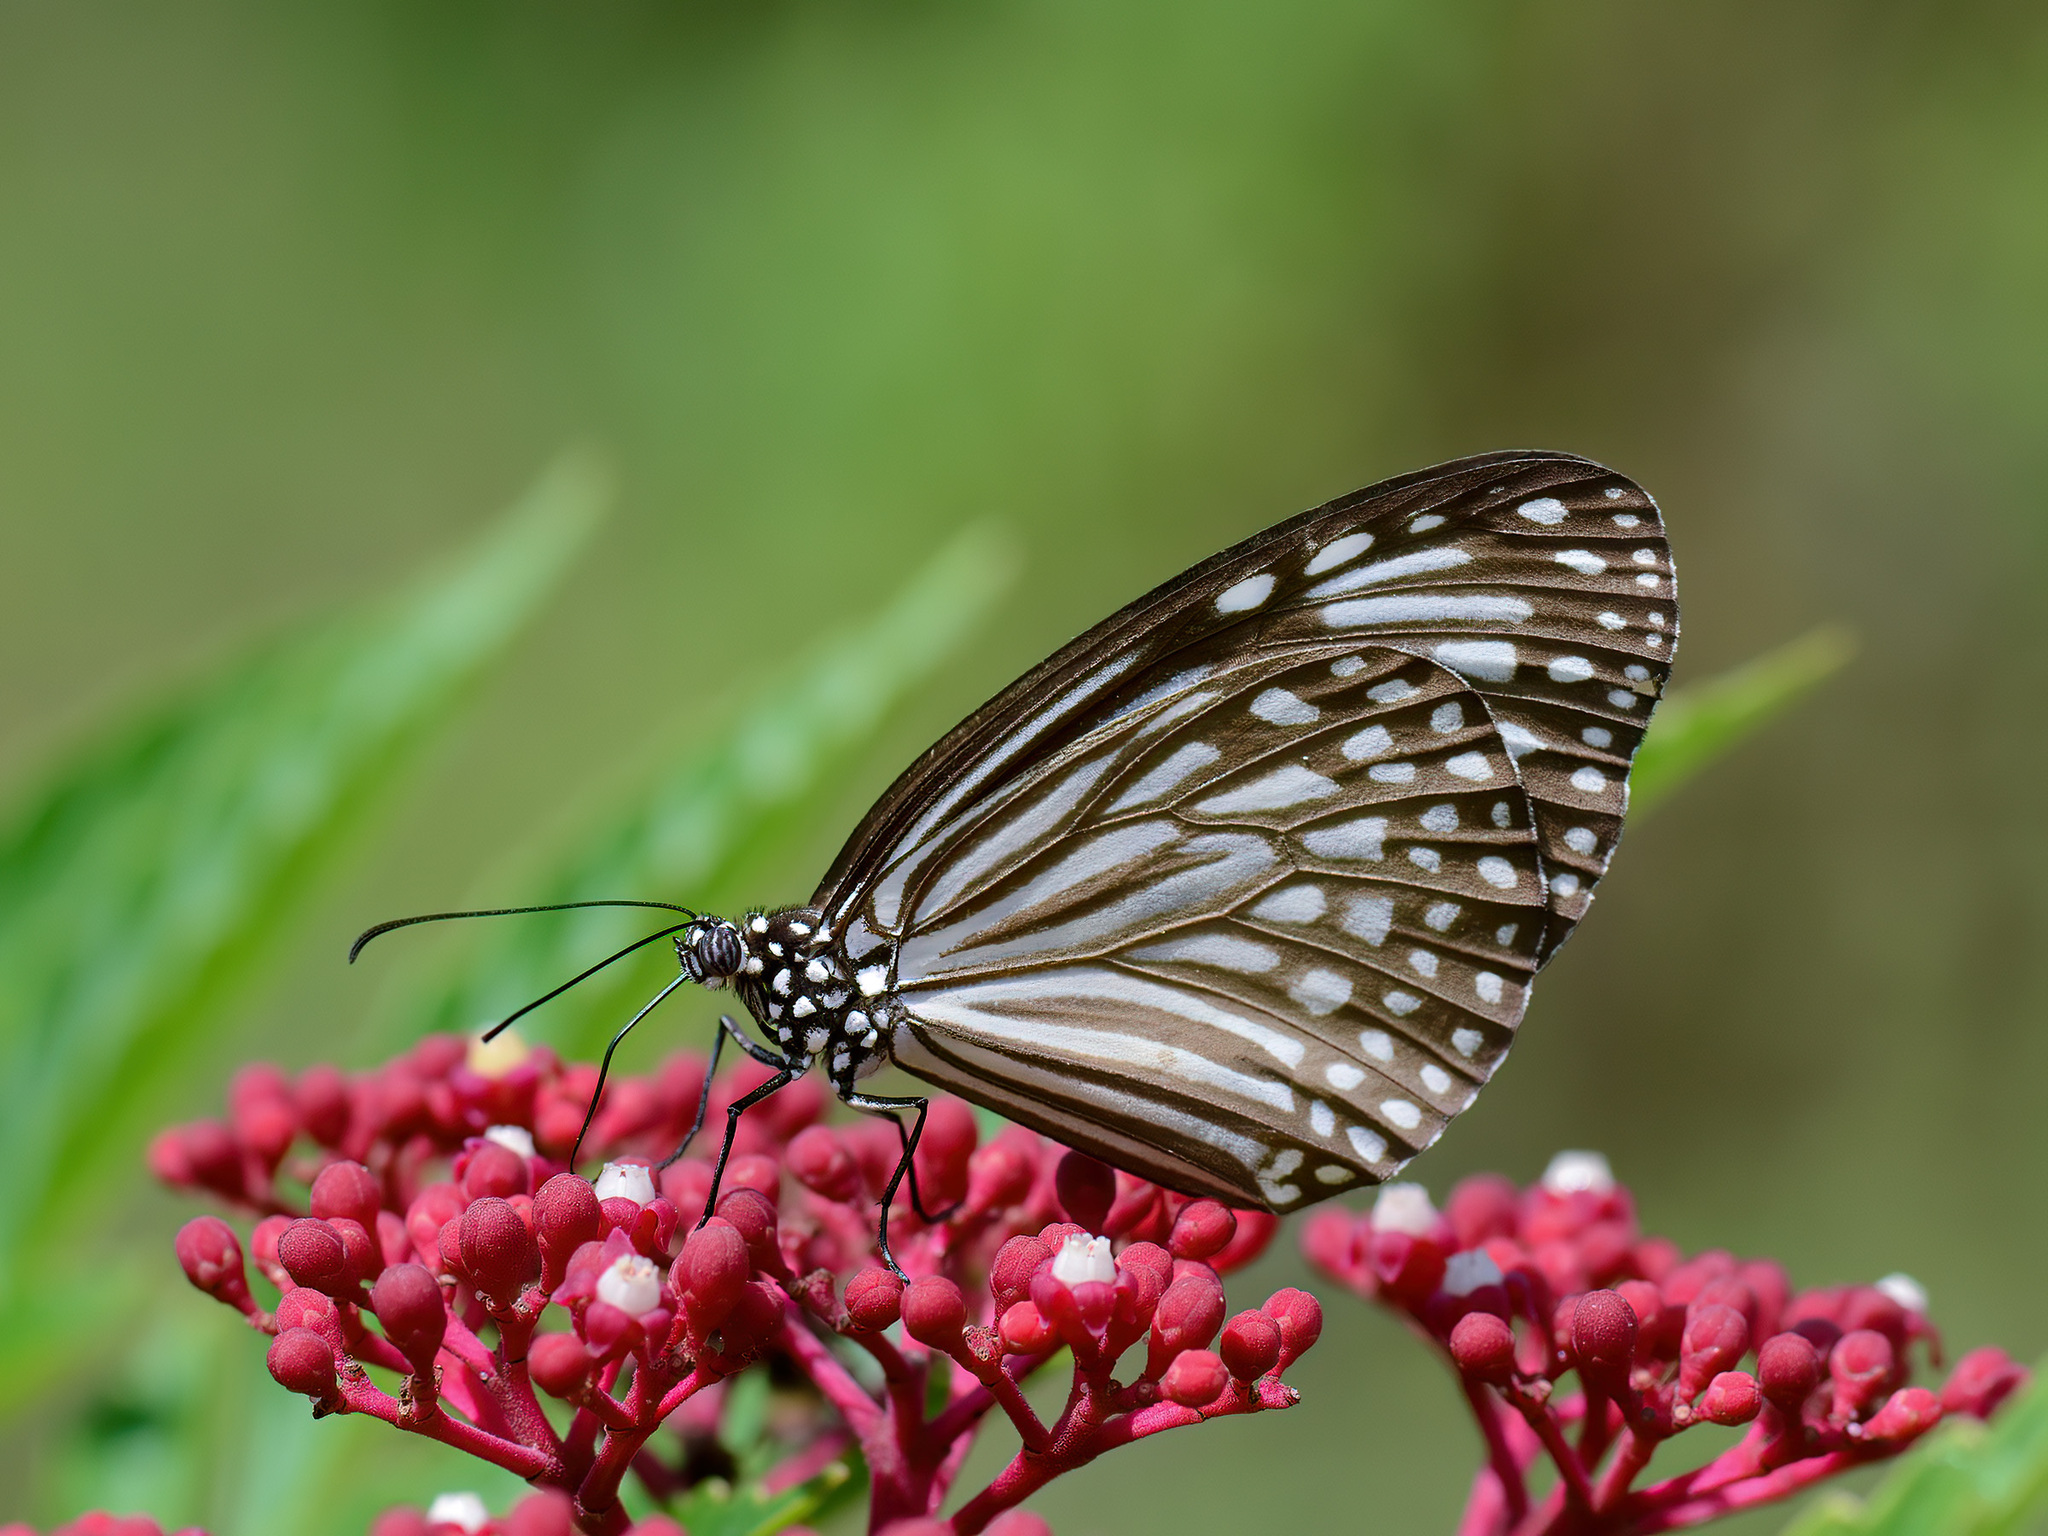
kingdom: Animalia
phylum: Arthropoda
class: Insecta
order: Lepidoptera
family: Nymphalidae
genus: Parantica
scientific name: Parantica agleoides
